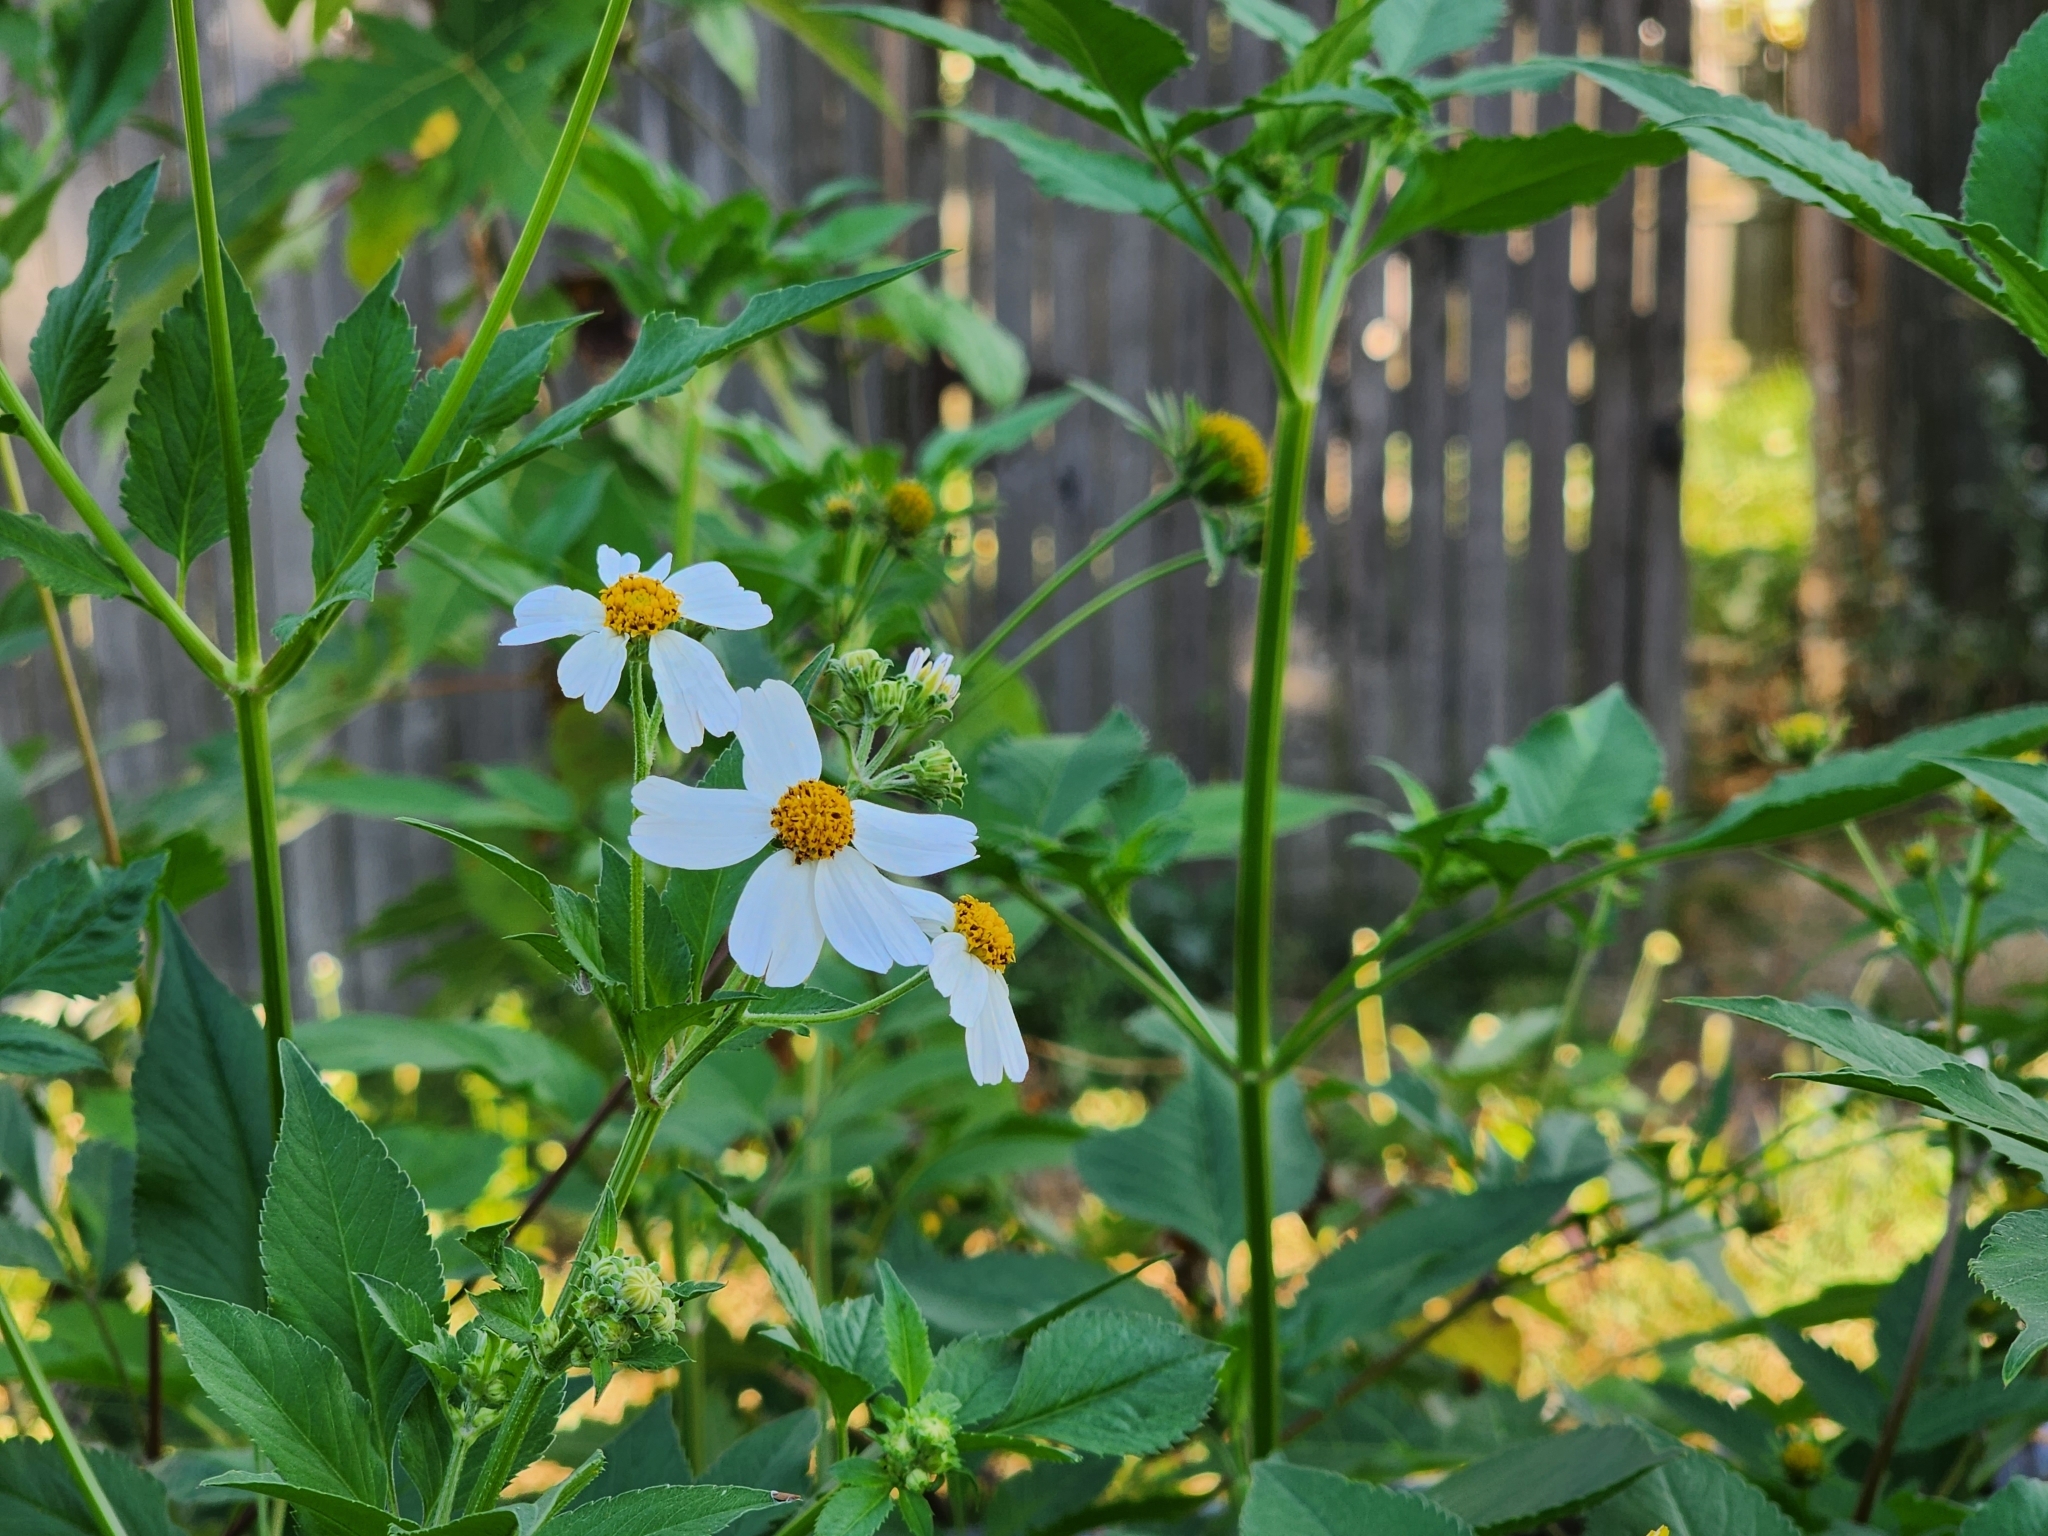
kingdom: Plantae
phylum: Tracheophyta
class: Magnoliopsida
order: Asterales
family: Asteraceae
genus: Bidens
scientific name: Bidens alba
